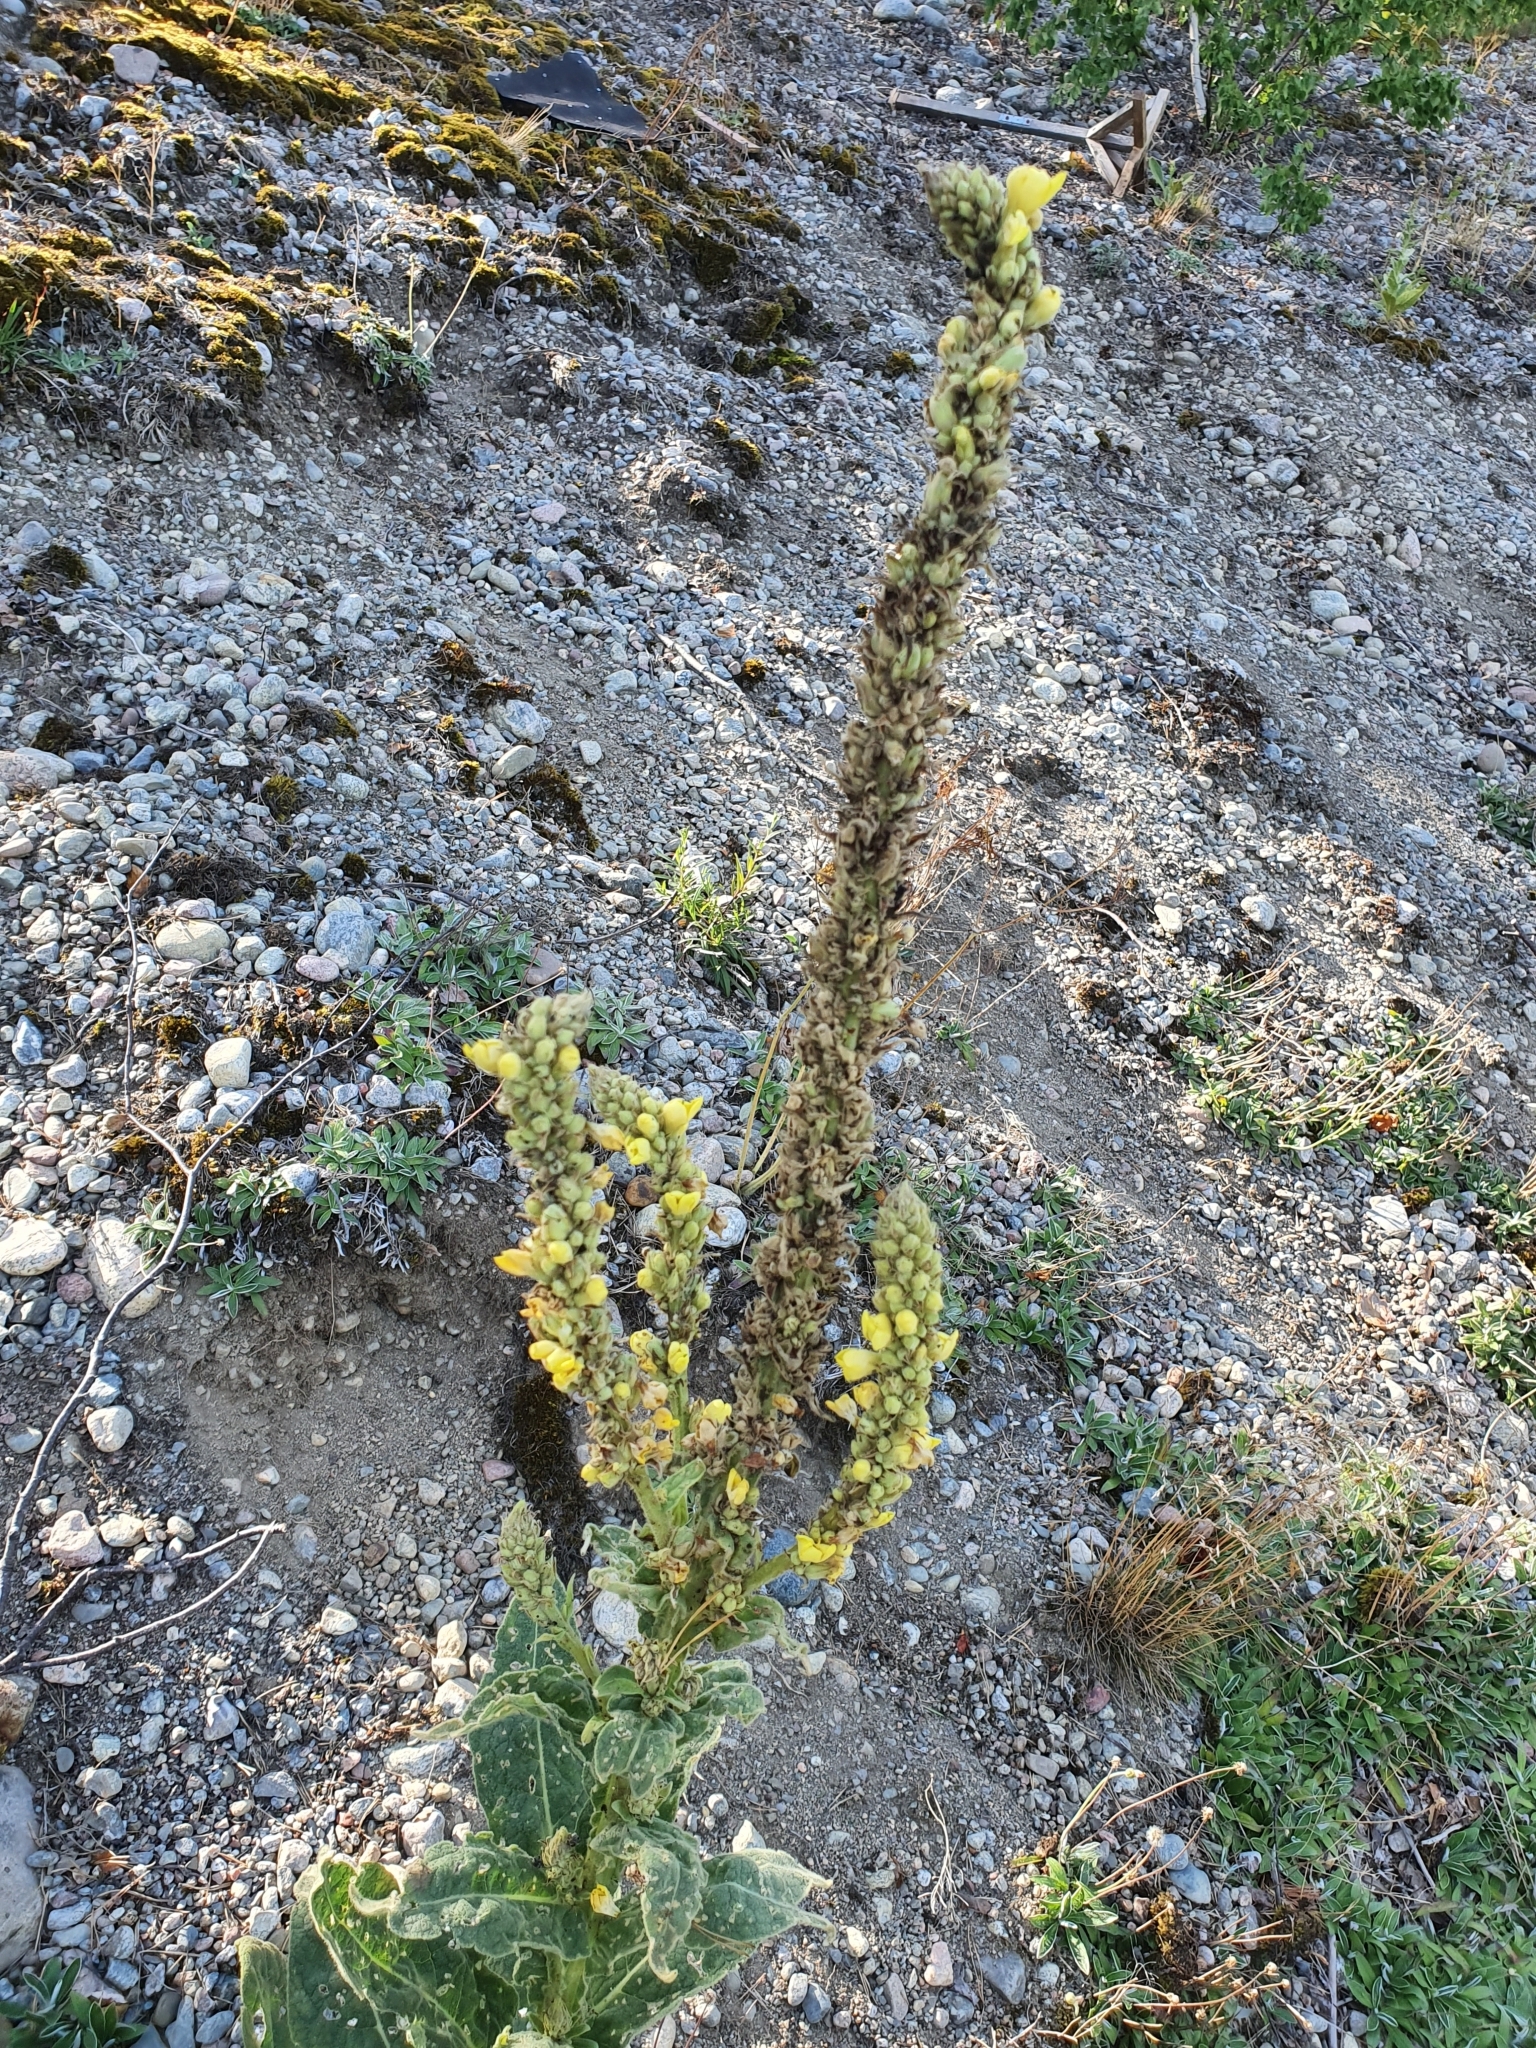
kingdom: Plantae
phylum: Tracheophyta
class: Magnoliopsida
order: Lamiales
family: Scrophulariaceae
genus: Verbascum
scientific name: Verbascum thapsus
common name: Common mullein
